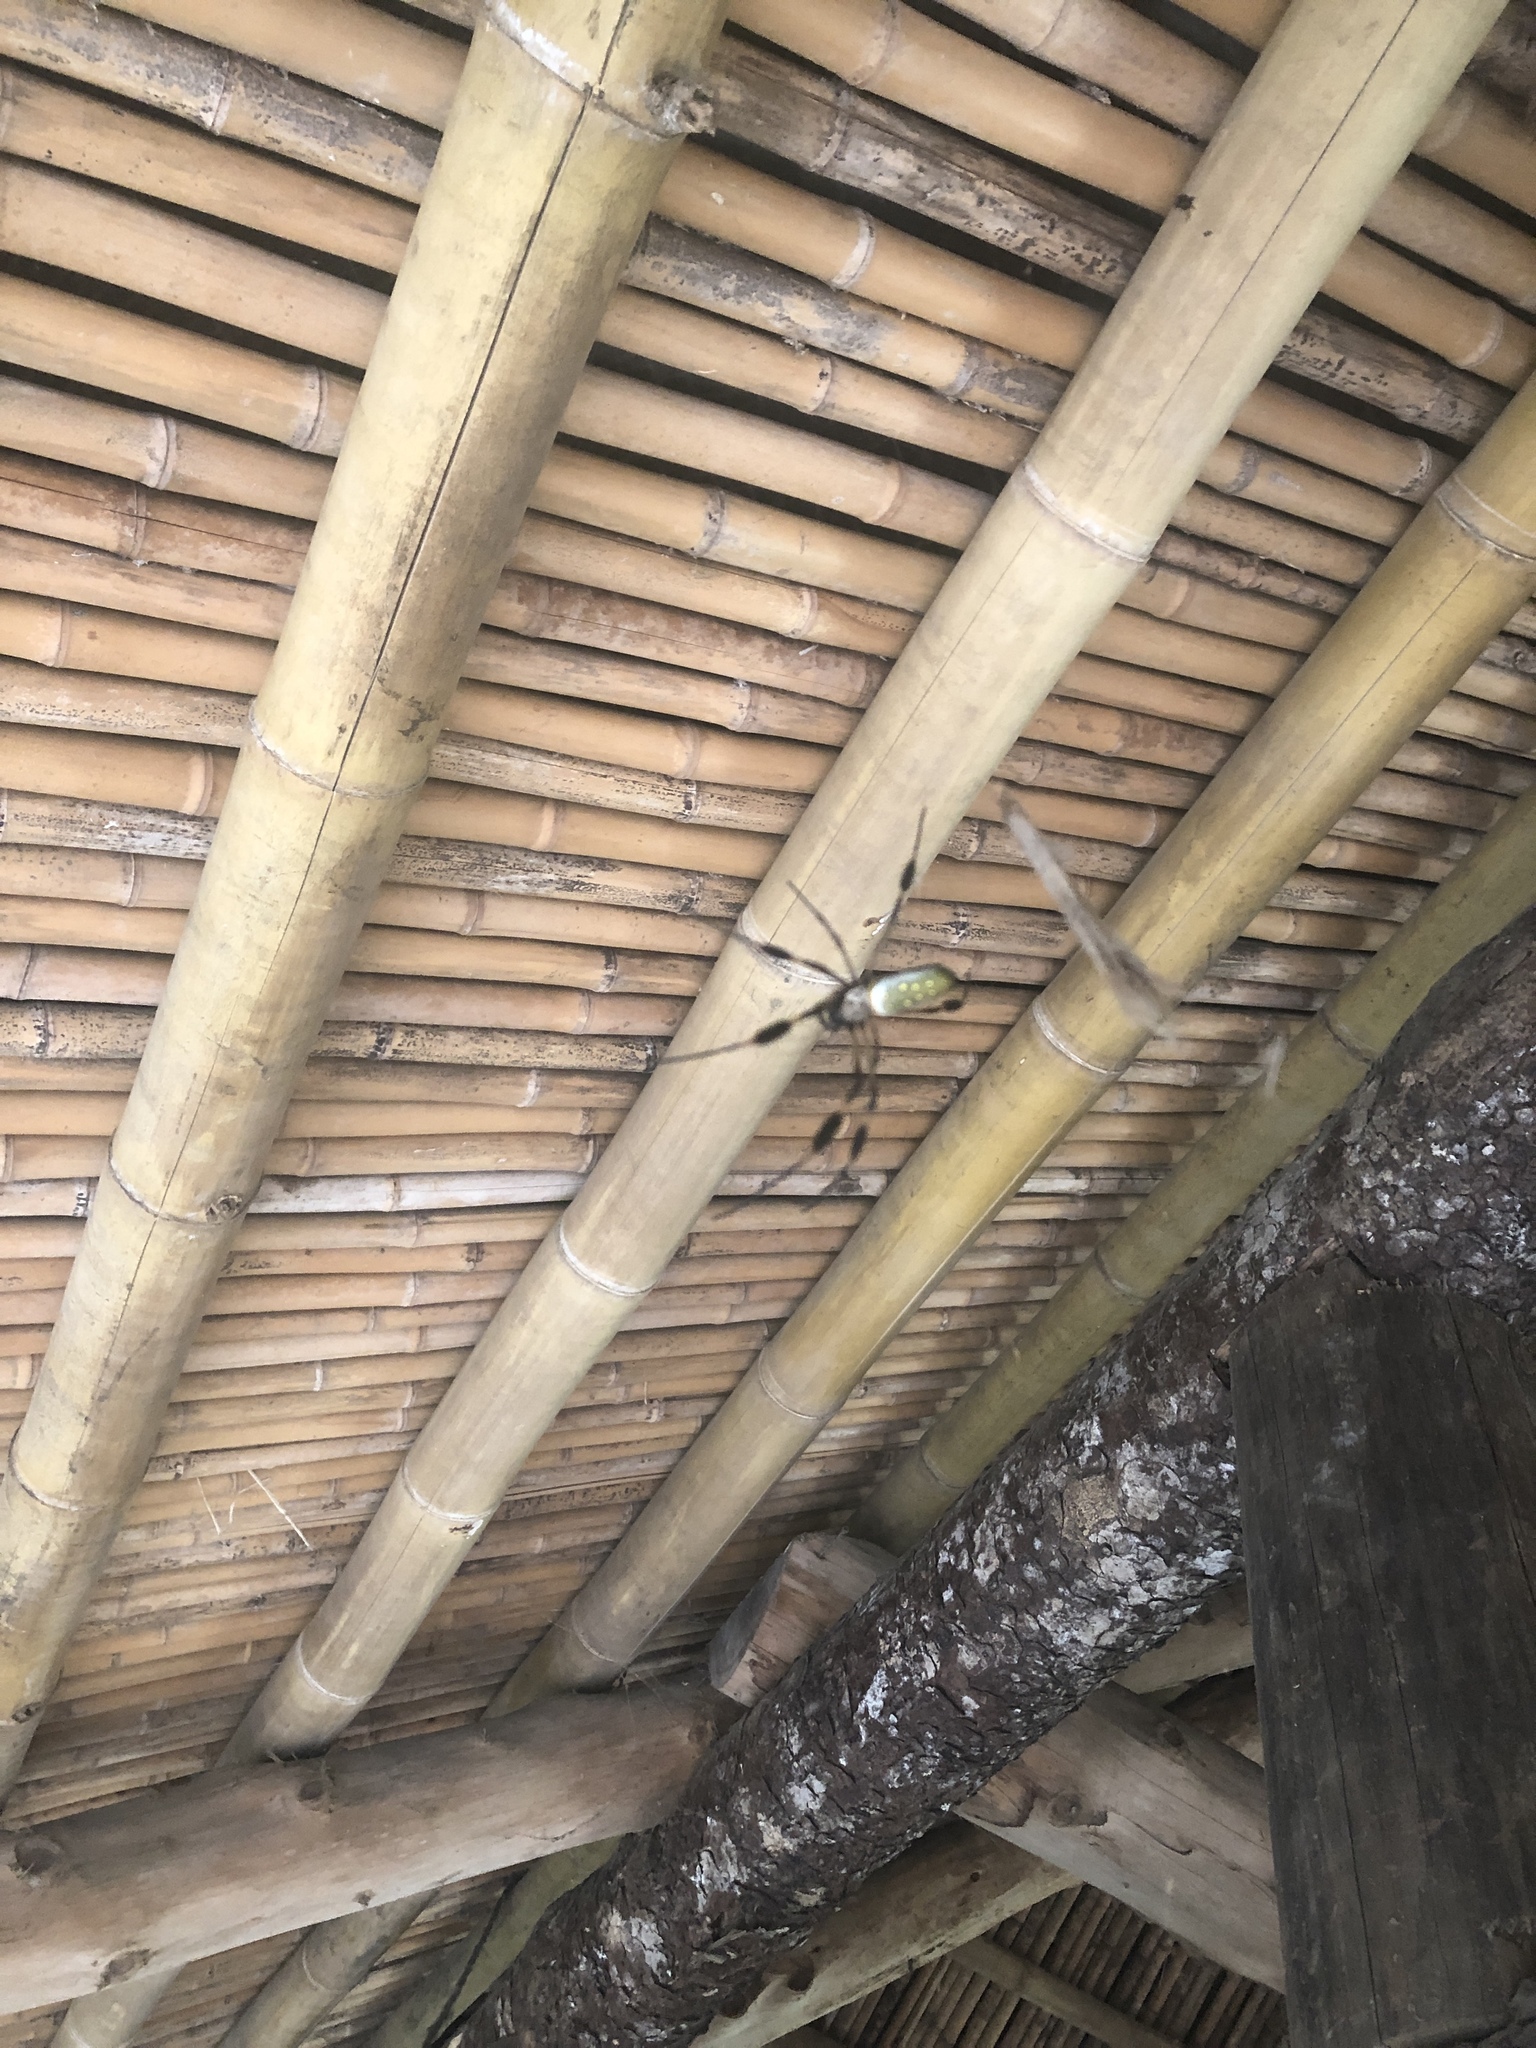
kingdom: Animalia
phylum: Arthropoda
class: Arachnida
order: Araneae
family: Araneidae
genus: Trichonephila
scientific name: Trichonephila clavipes
